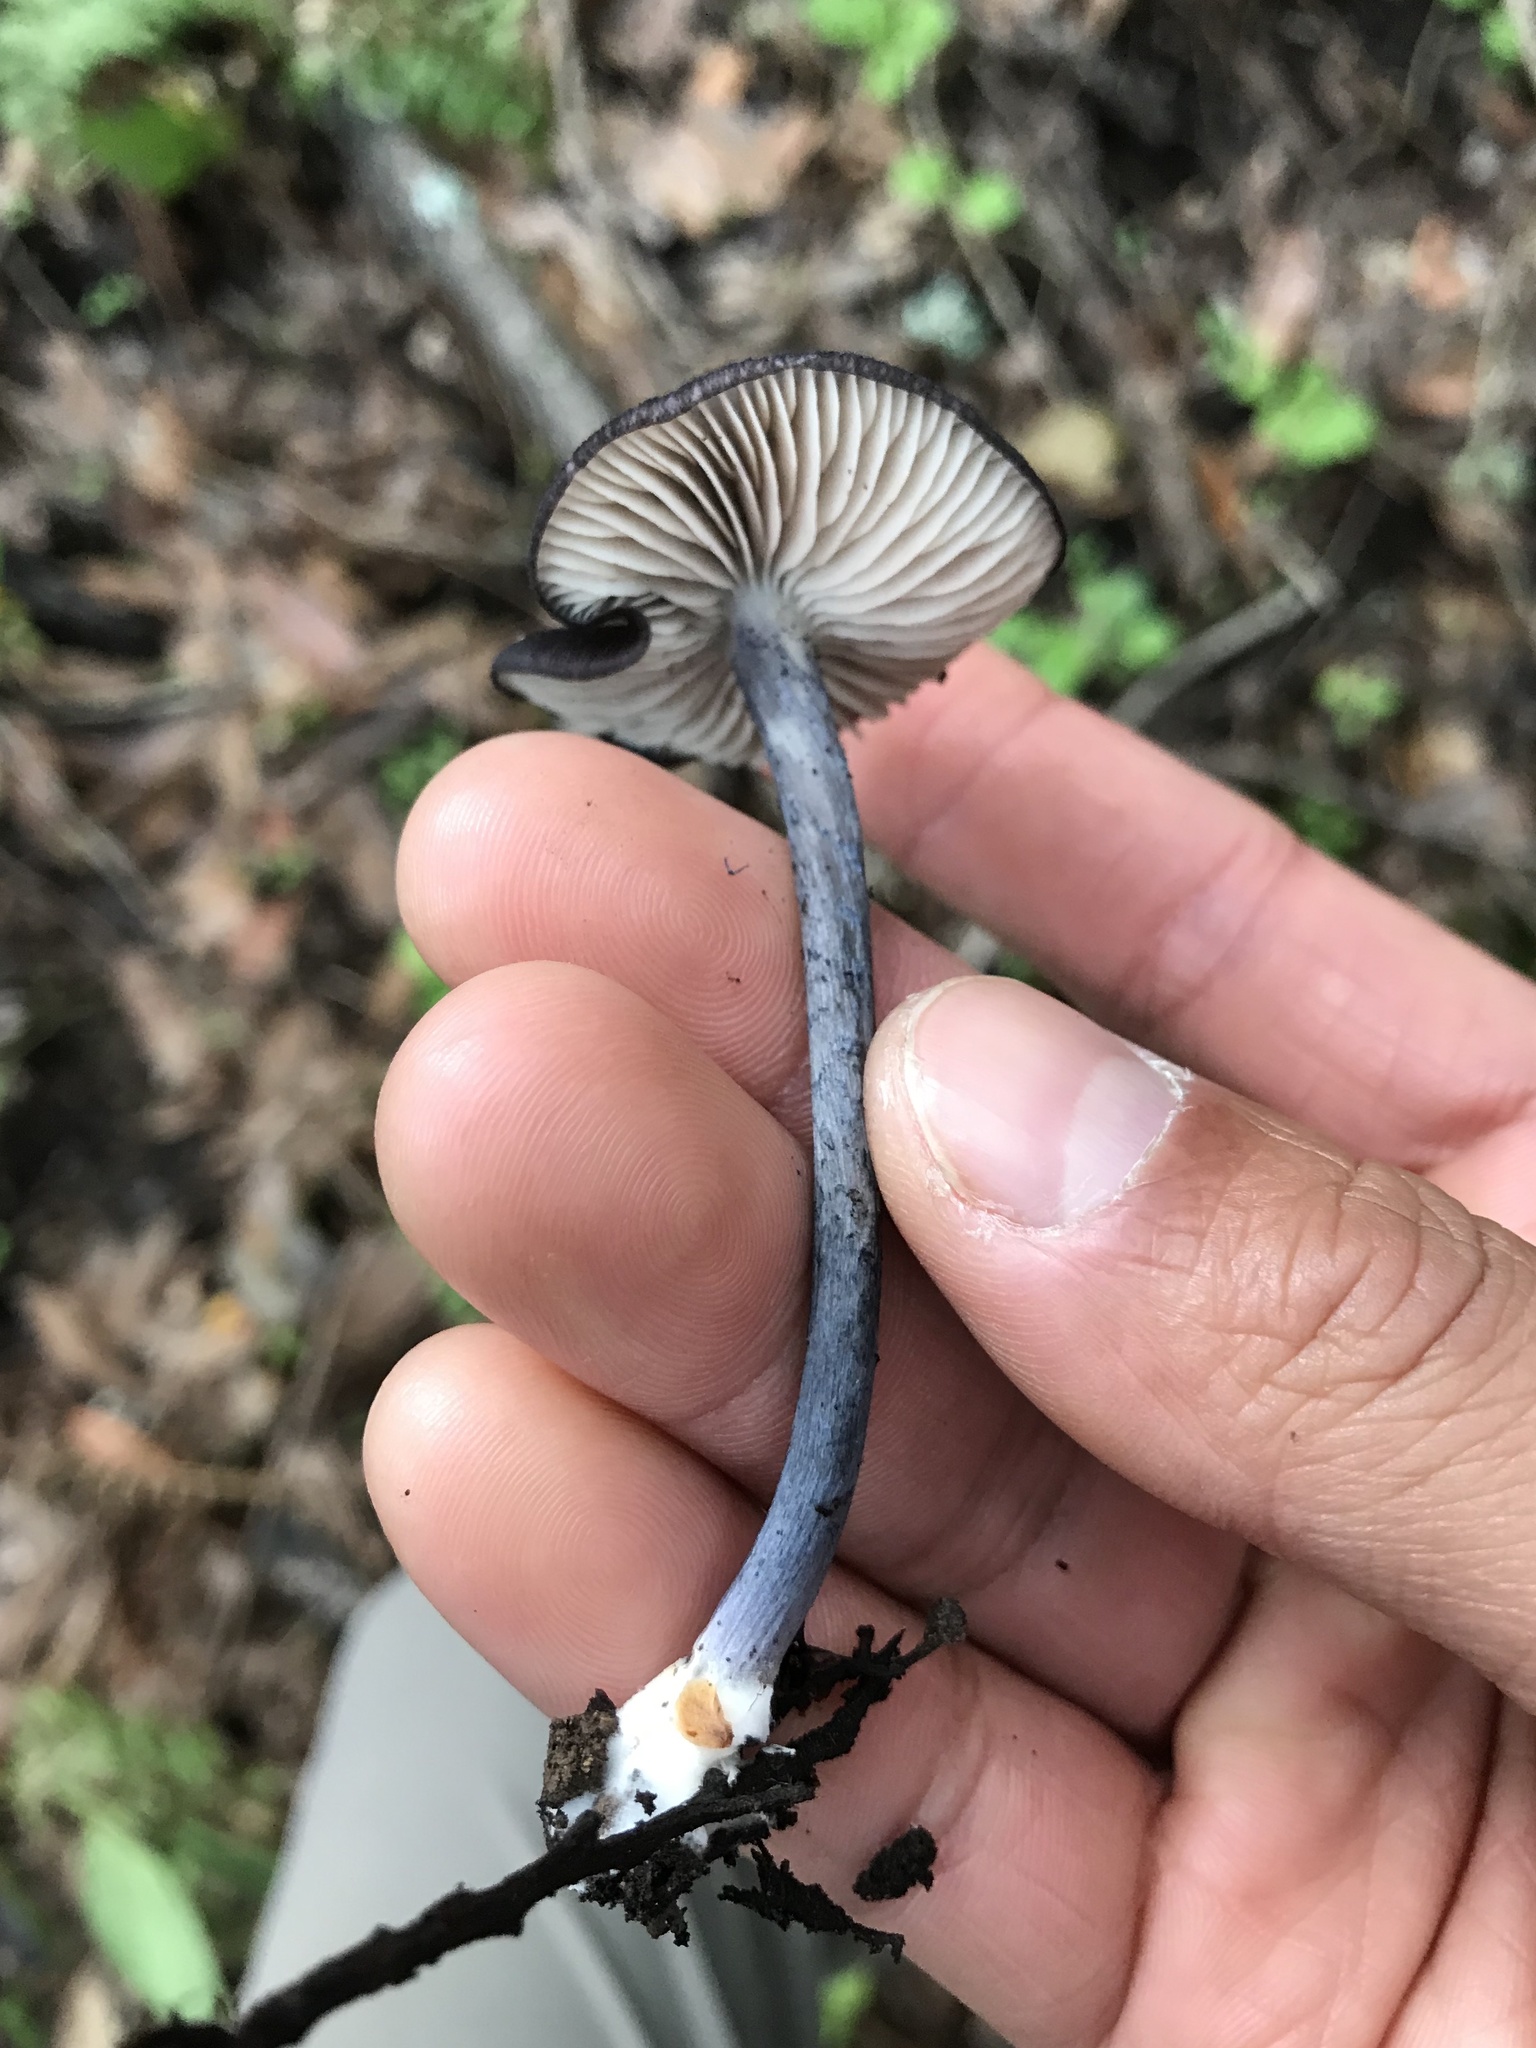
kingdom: Fungi
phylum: Basidiomycota
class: Agaricomycetes
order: Agaricales
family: Entolomataceae
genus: Entoloma
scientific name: Entoloma pigmentosipes
